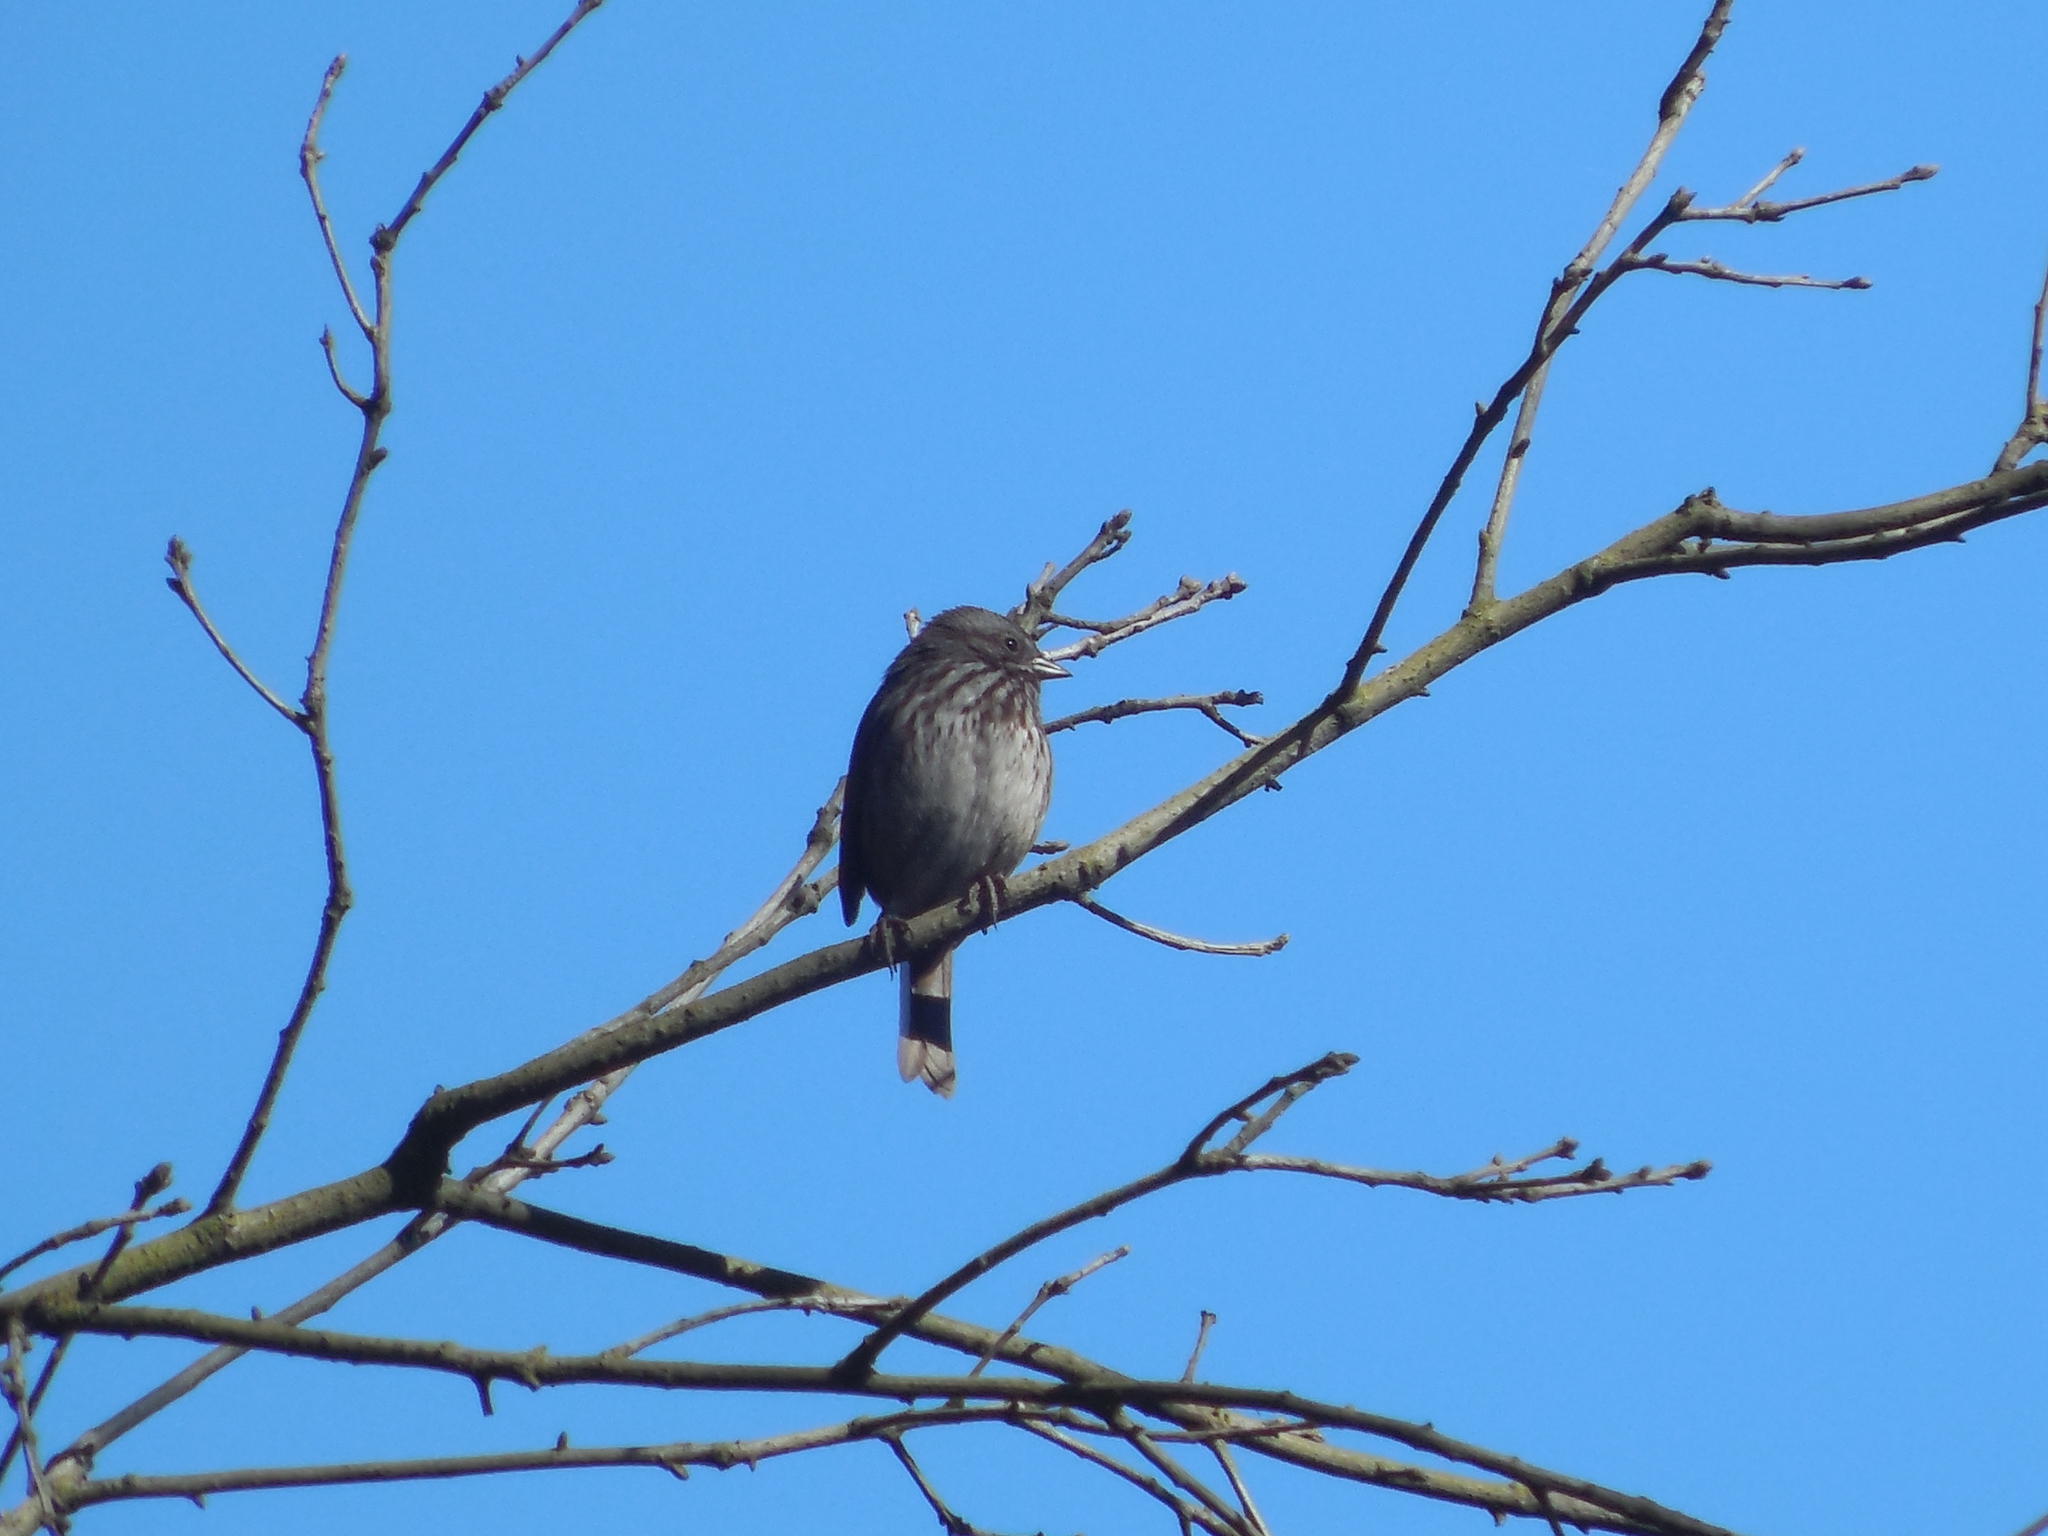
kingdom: Animalia
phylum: Chordata
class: Aves
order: Passeriformes
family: Passerellidae
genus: Melospiza
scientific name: Melospiza melodia
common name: Song sparrow
